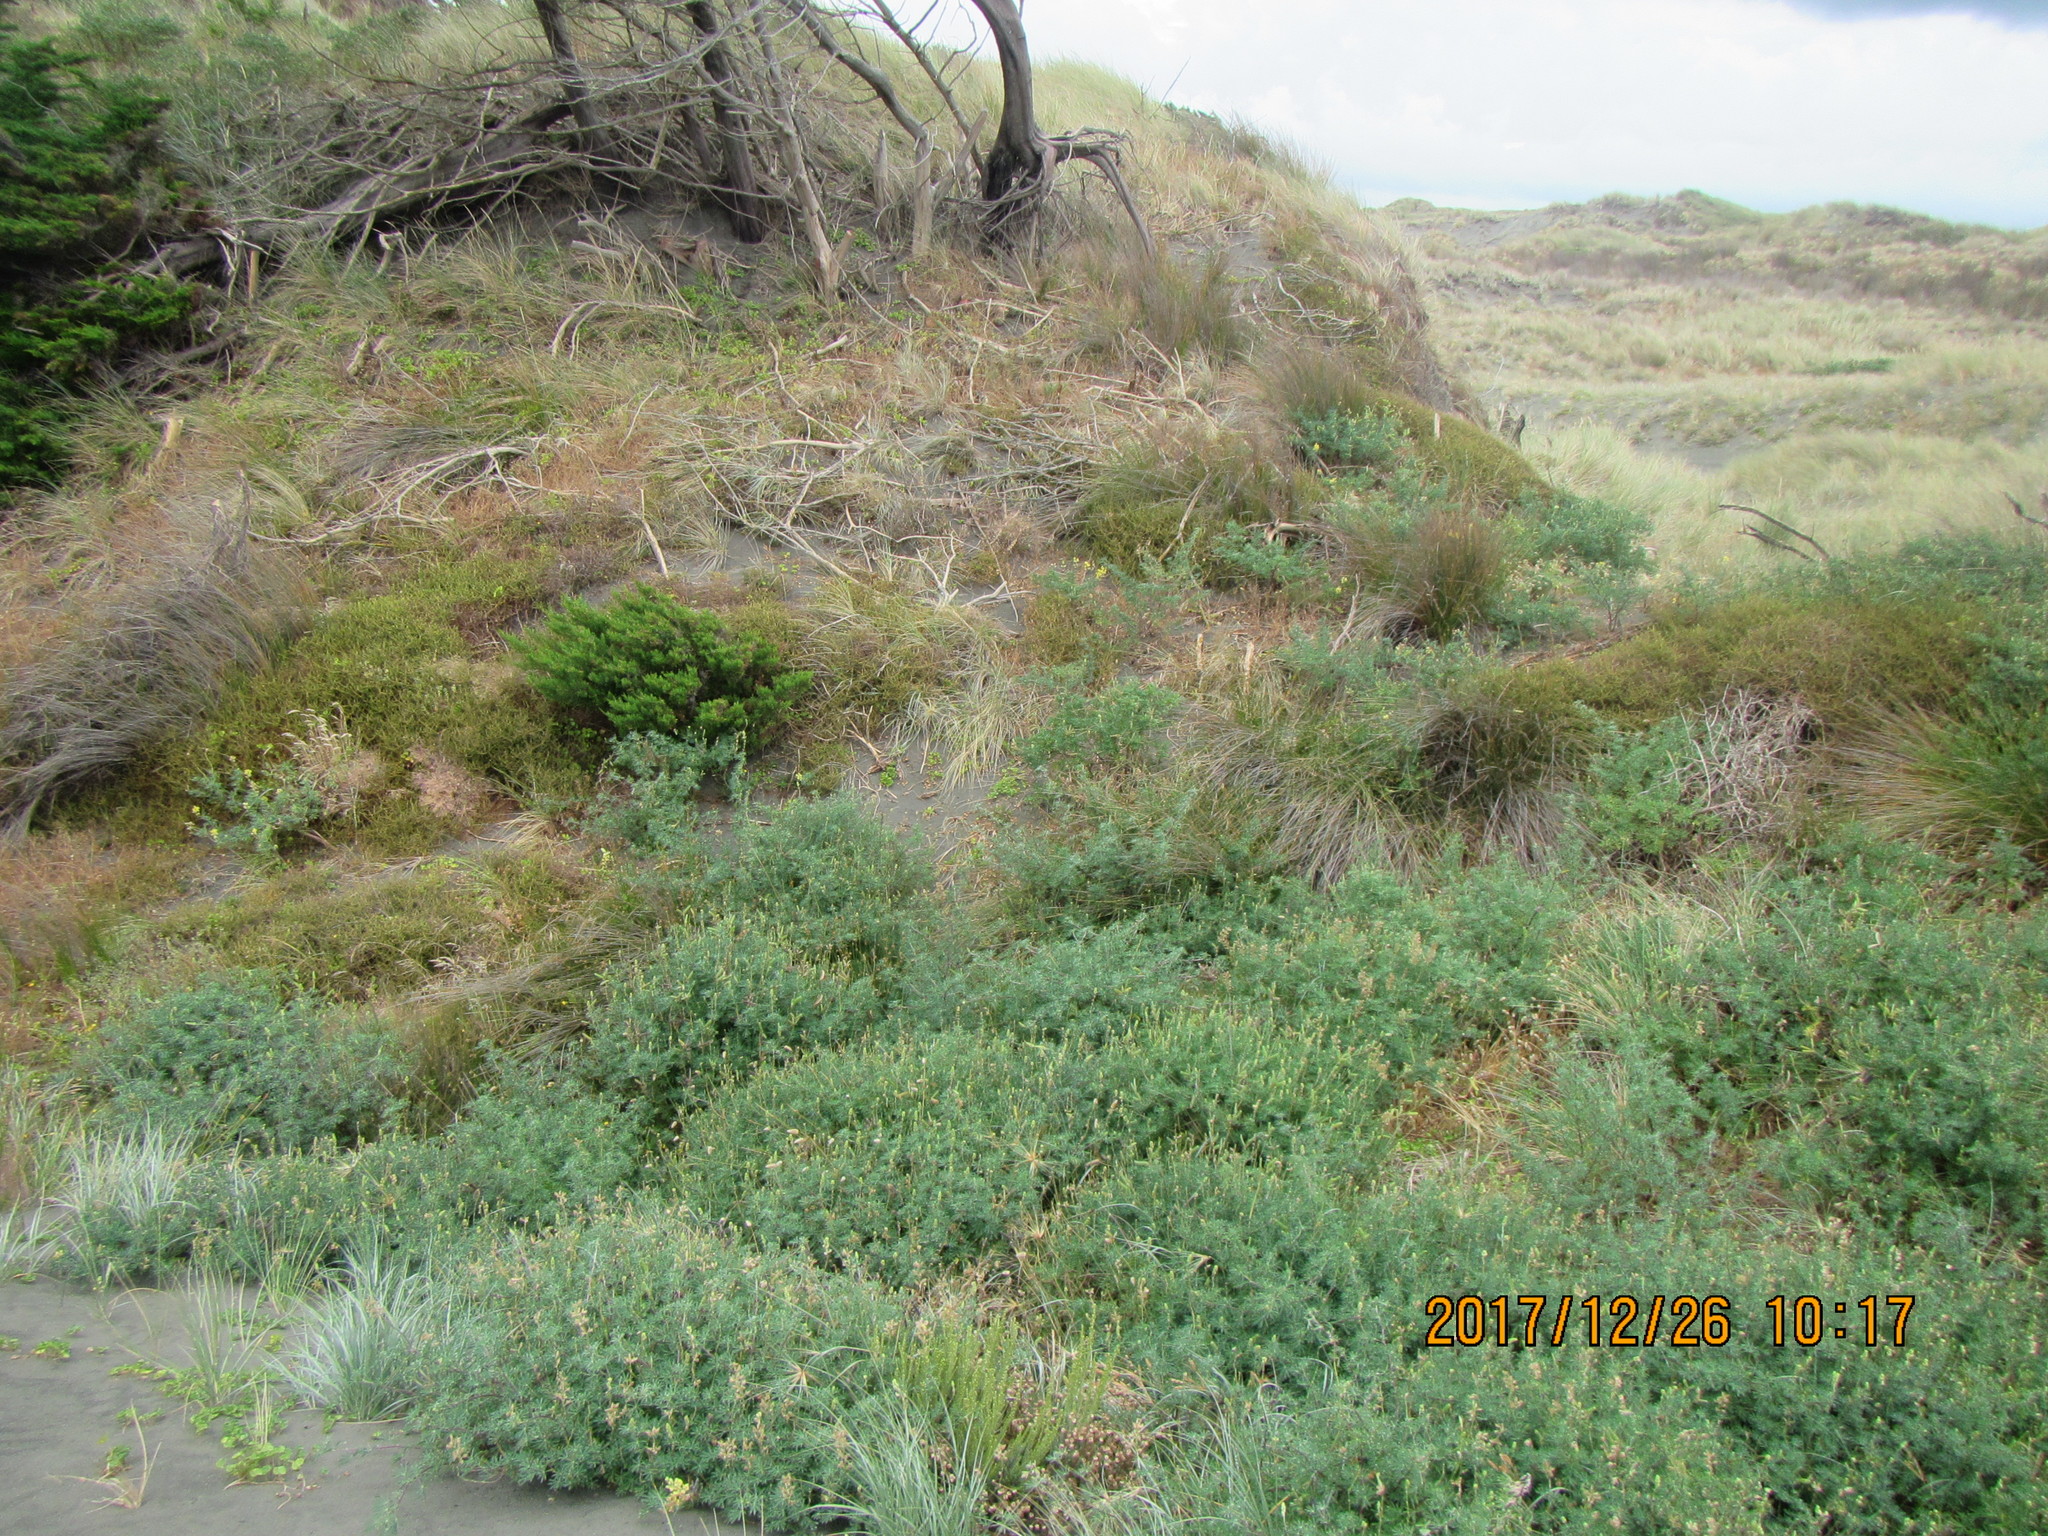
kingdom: Plantae
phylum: Tracheophyta
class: Magnoliopsida
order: Fabales
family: Fabaceae
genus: Lupinus
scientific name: Lupinus arboreus
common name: Yellow bush lupine
